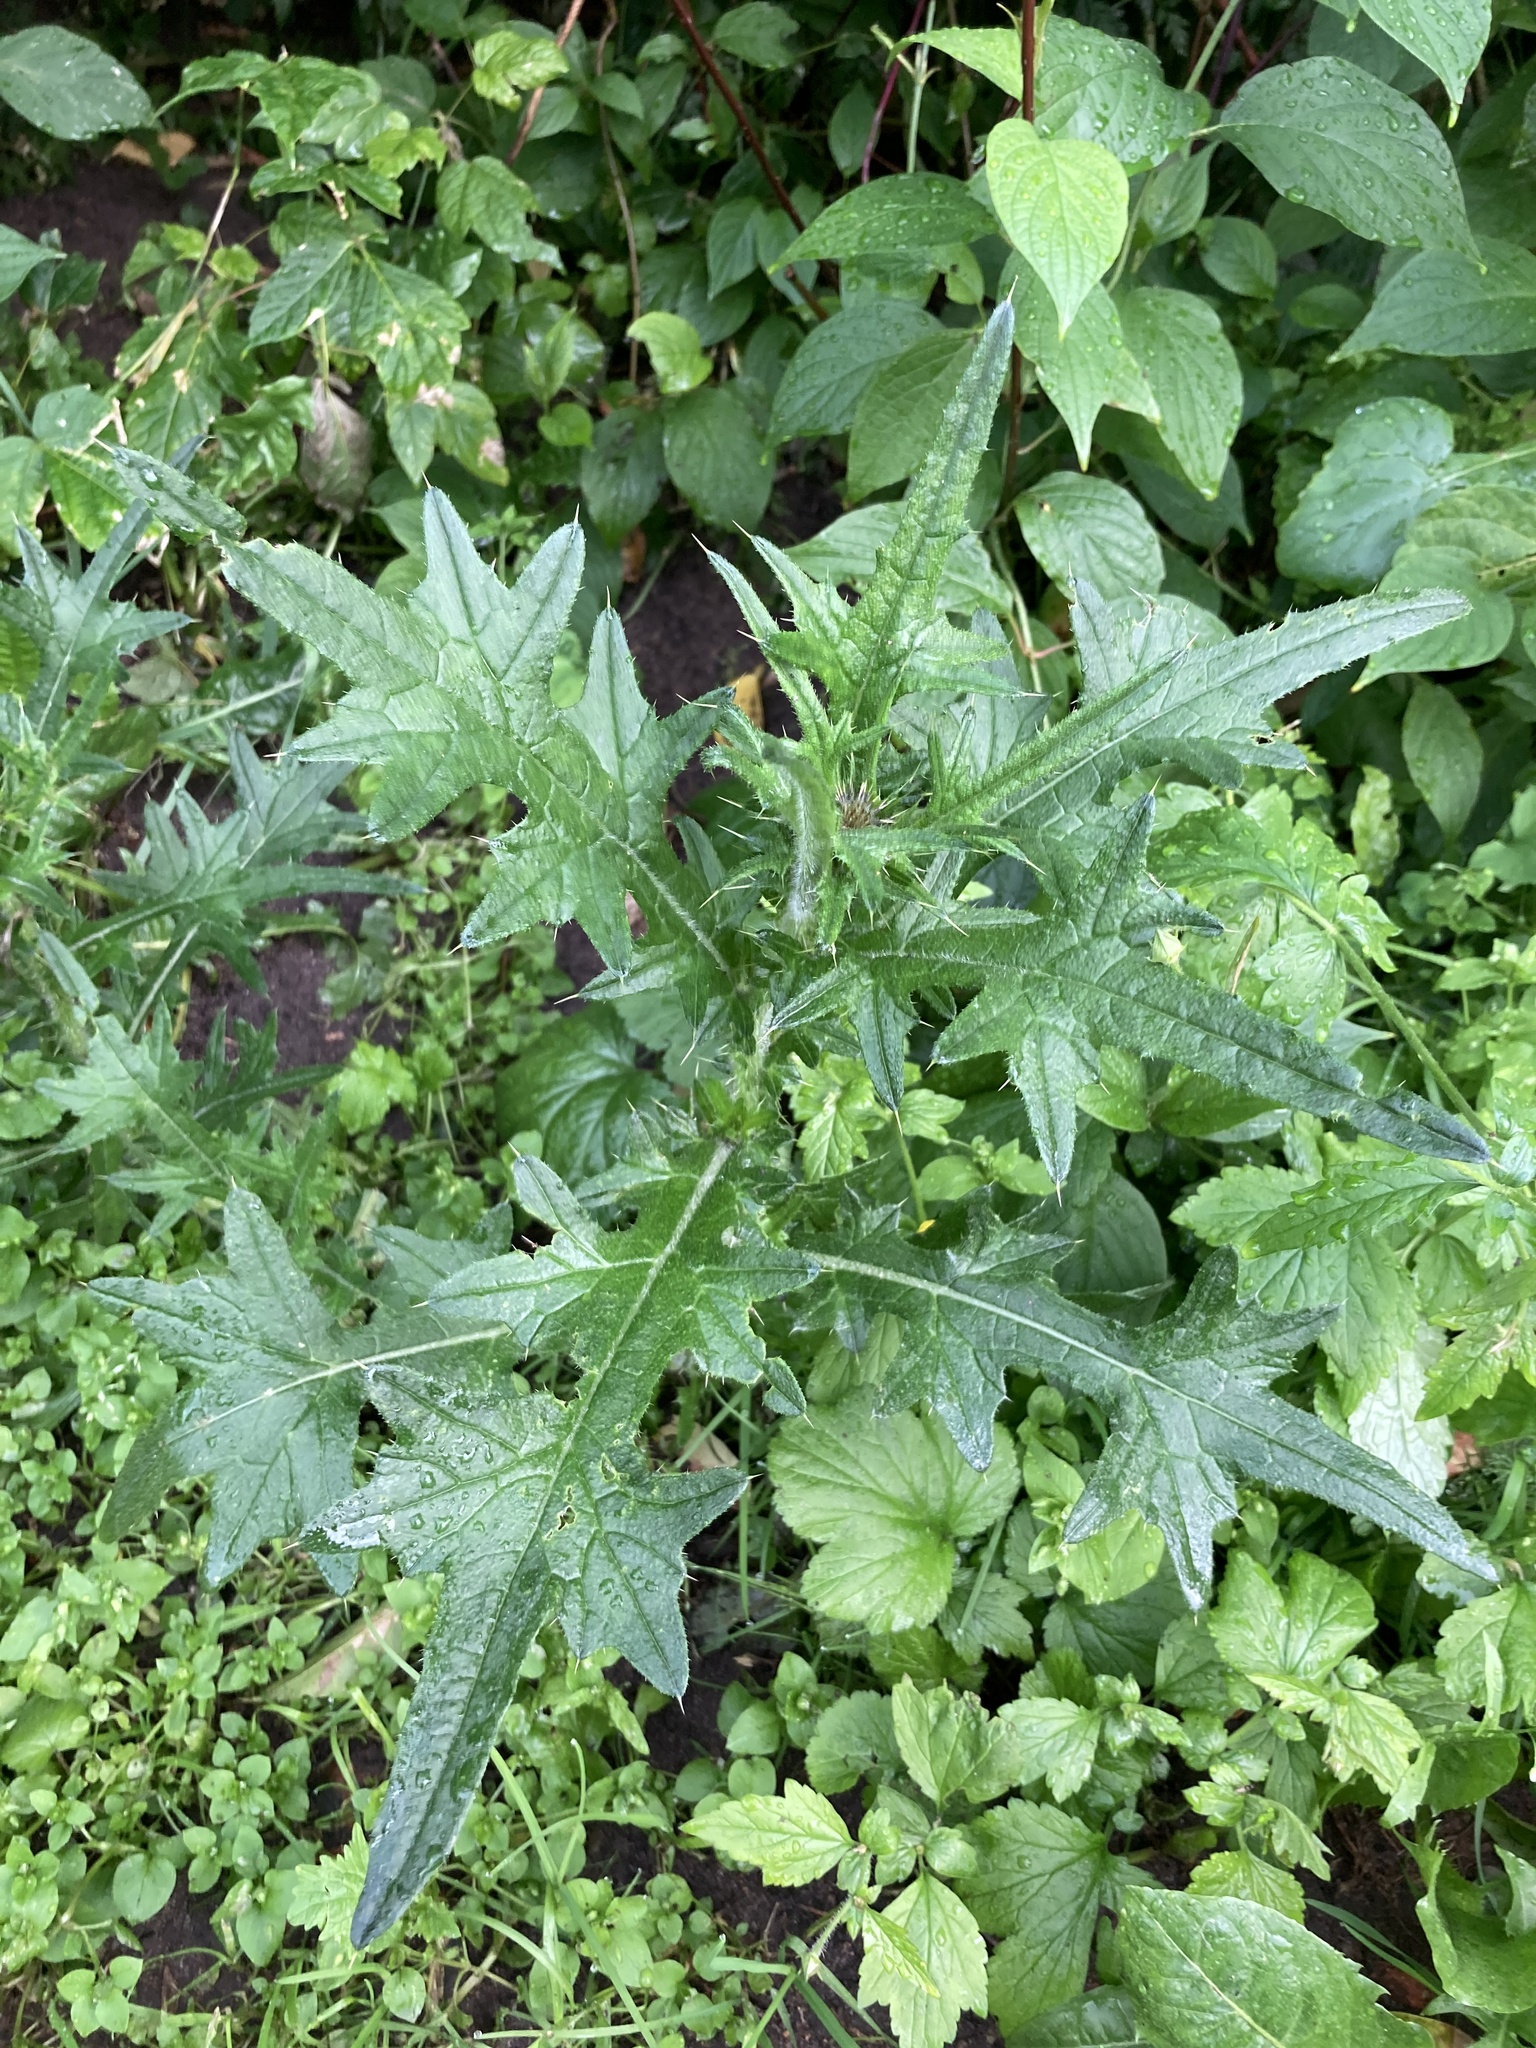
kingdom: Plantae
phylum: Tracheophyta
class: Magnoliopsida
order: Asterales
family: Asteraceae
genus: Cirsium
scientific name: Cirsium vulgare
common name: Bull thistle
